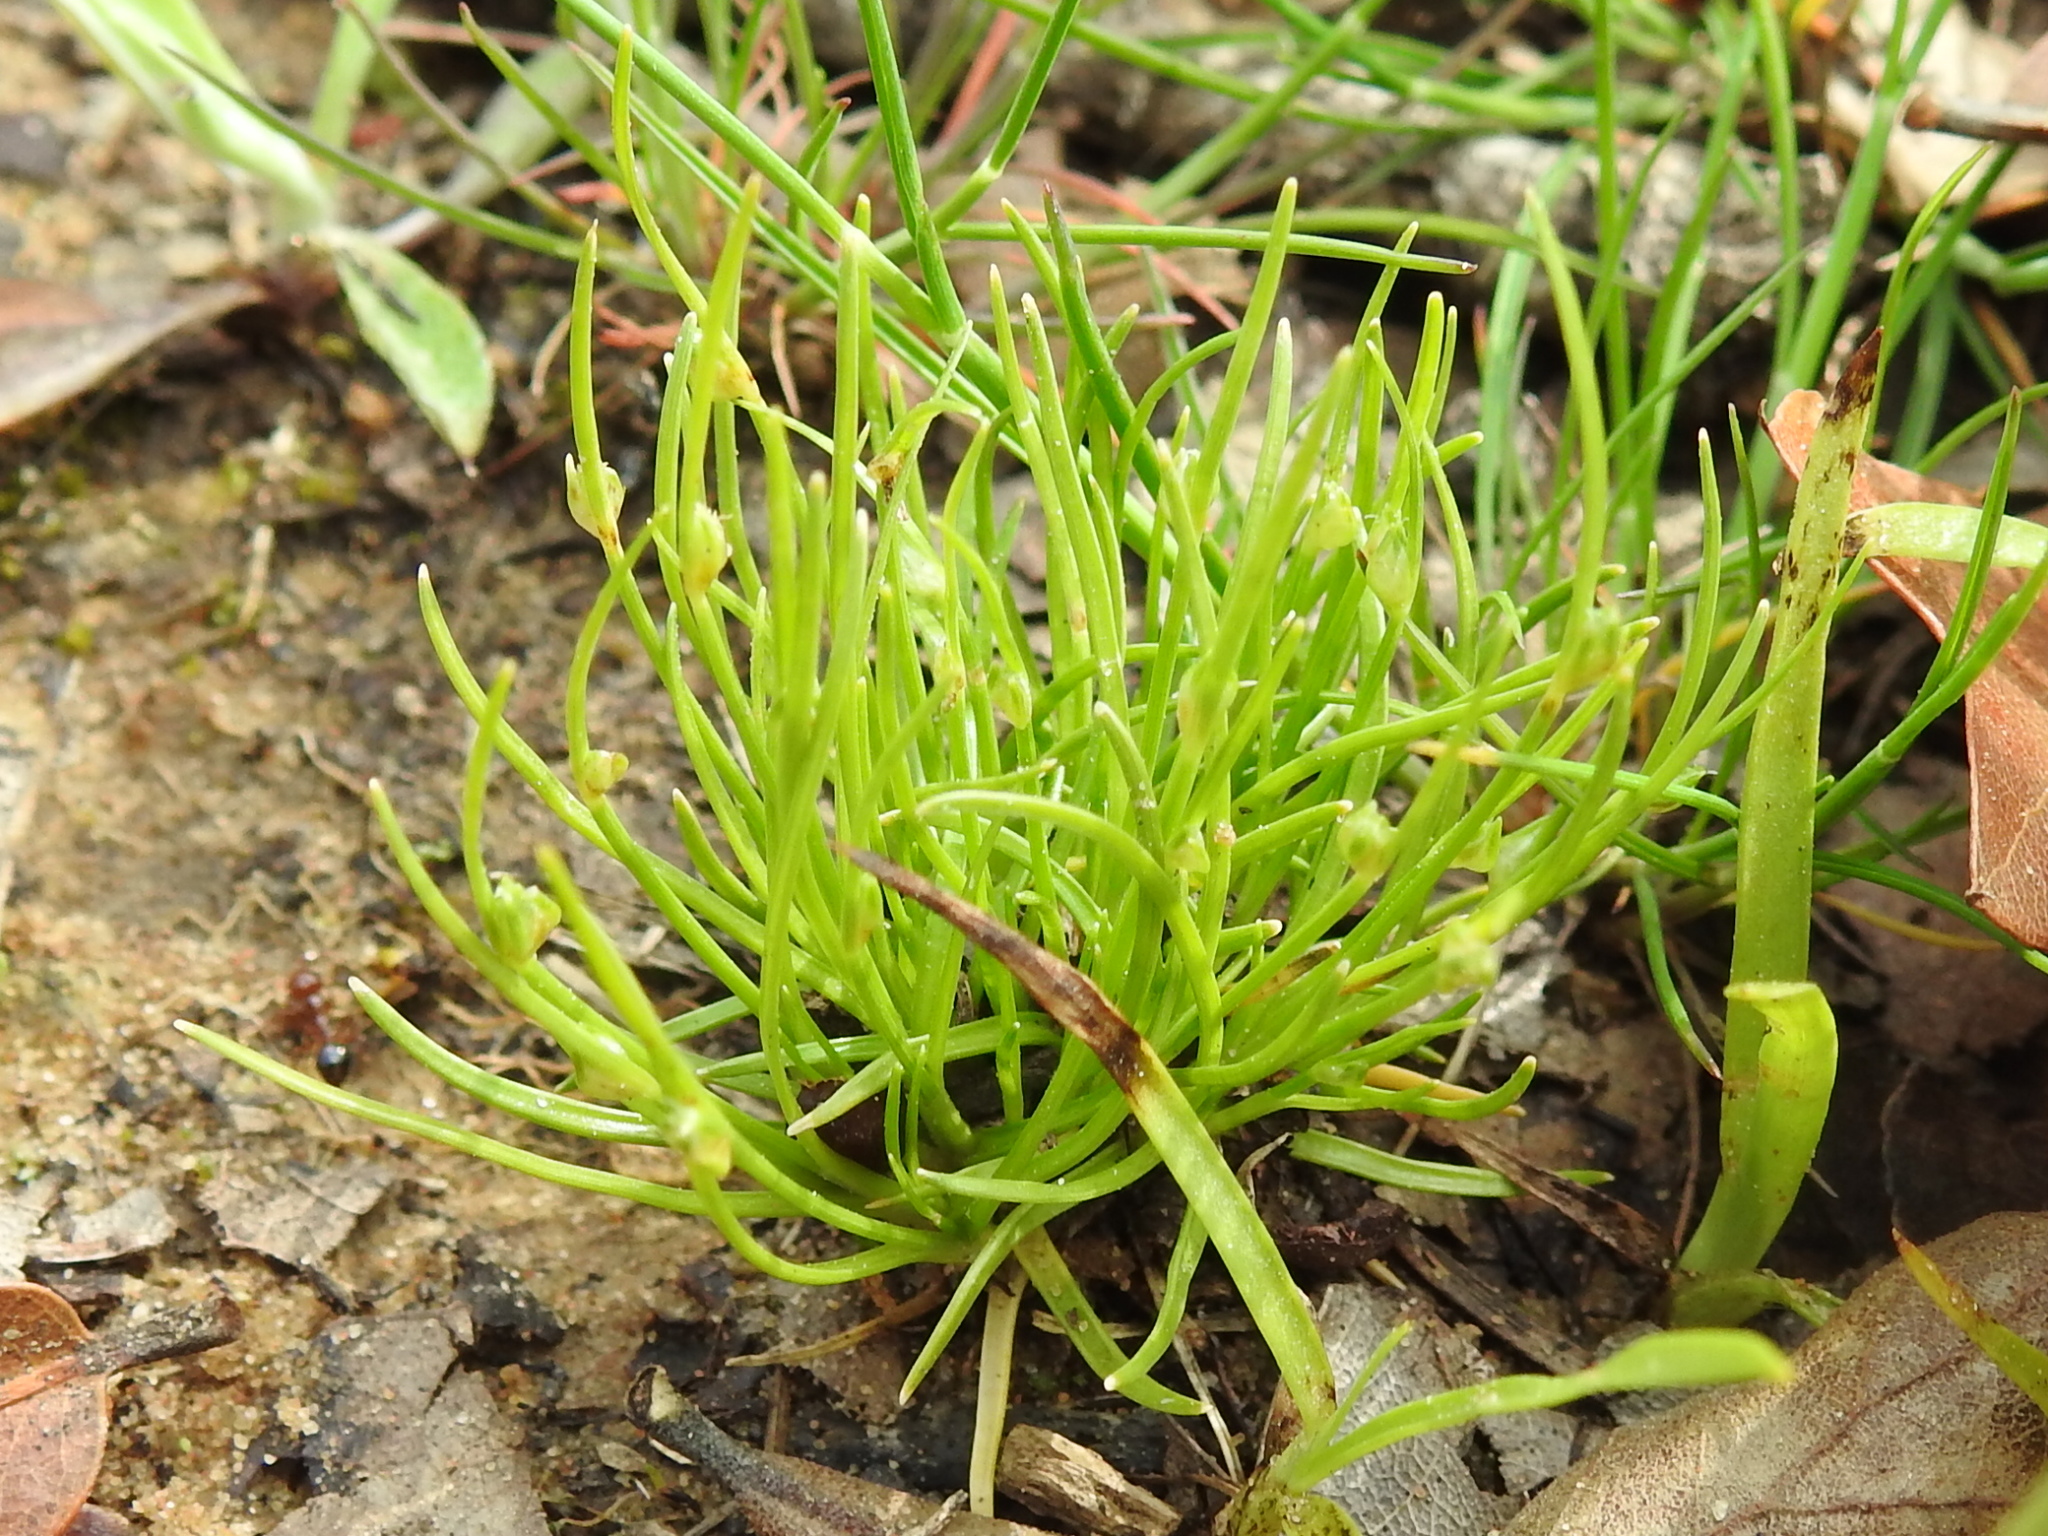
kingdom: Plantae
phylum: Tracheophyta
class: Liliopsida
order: Poales
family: Cyperaceae
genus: Isolepis
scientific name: Isolepis carinata
